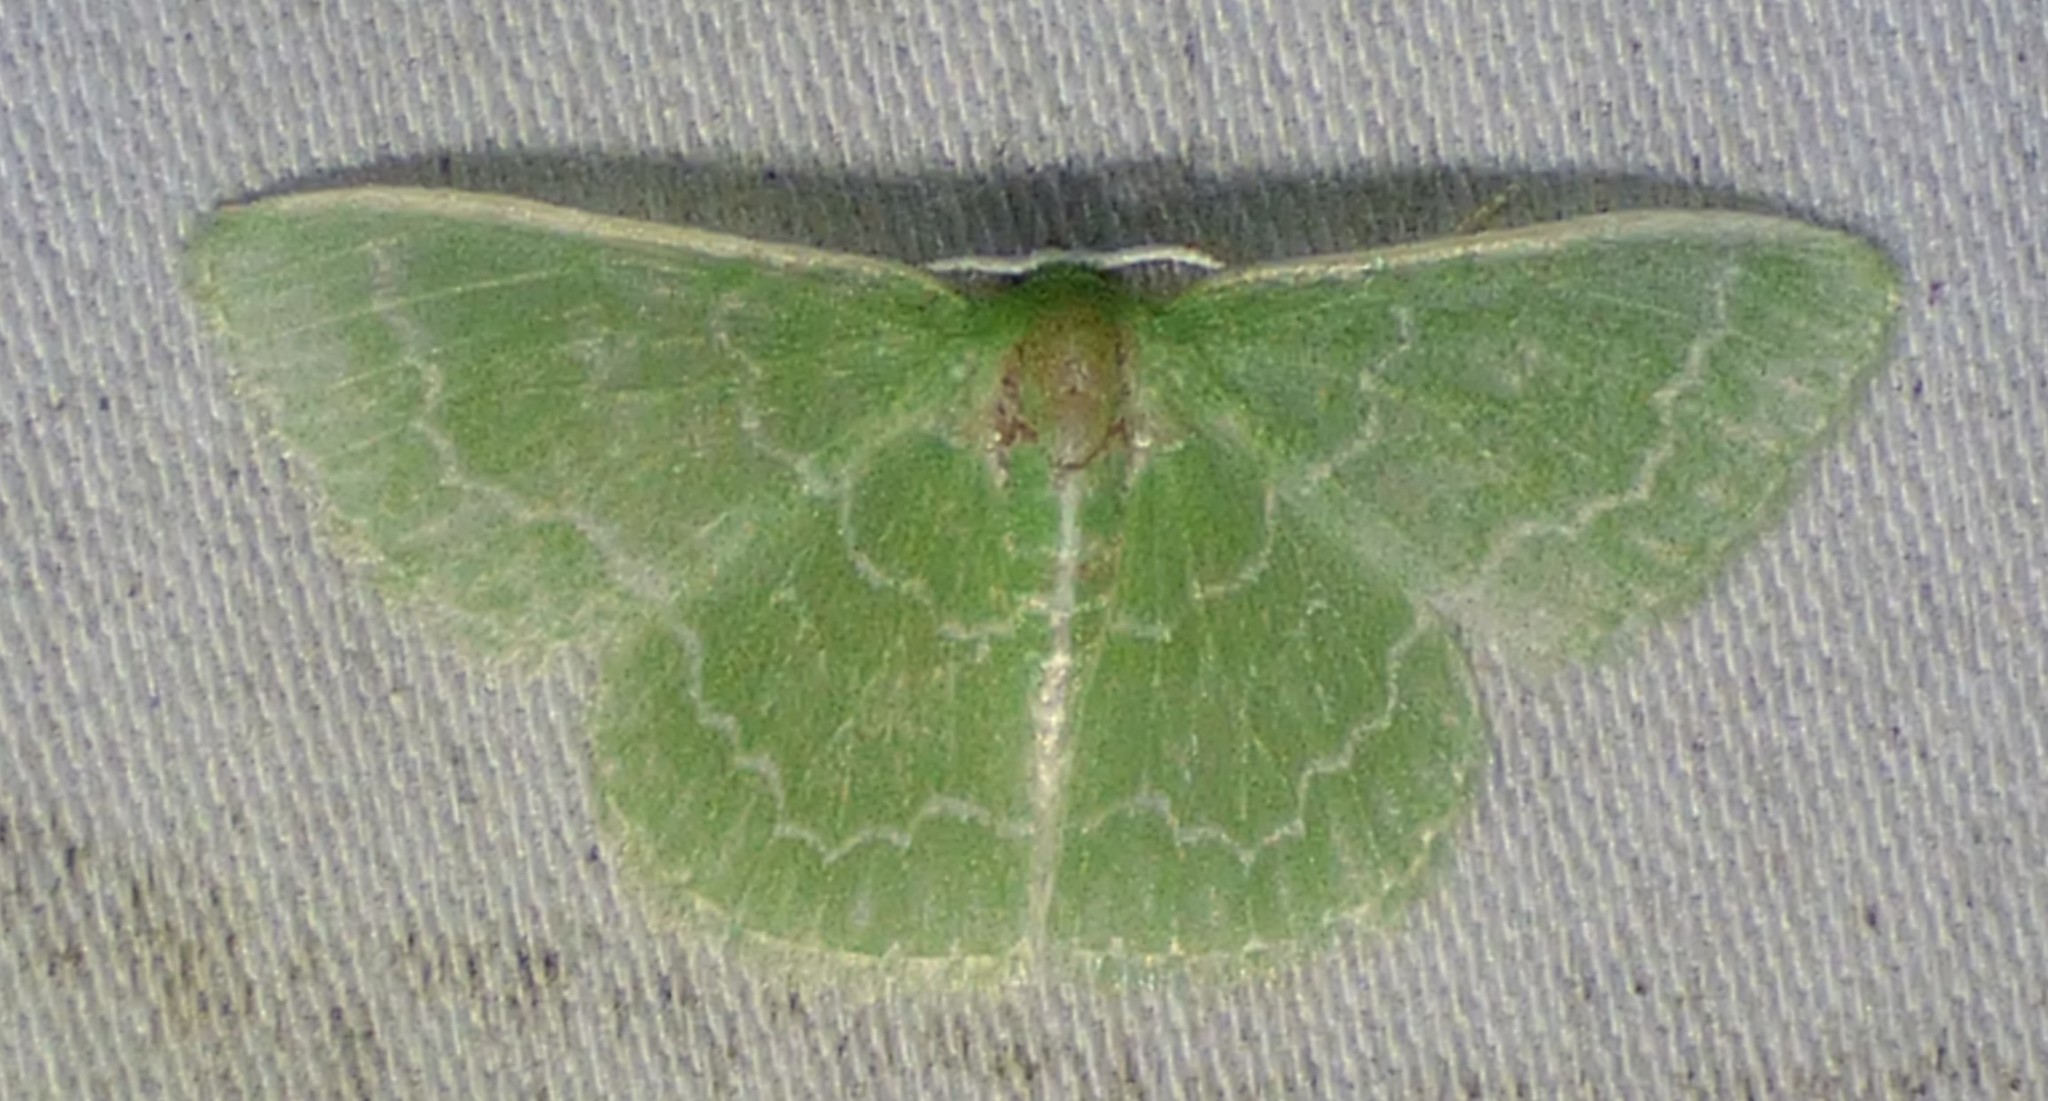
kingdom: Animalia
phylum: Arthropoda
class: Insecta
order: Lepidoptera
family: Geometridae
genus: Synchlora
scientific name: Synchlora frondaria
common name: Southern emerald
